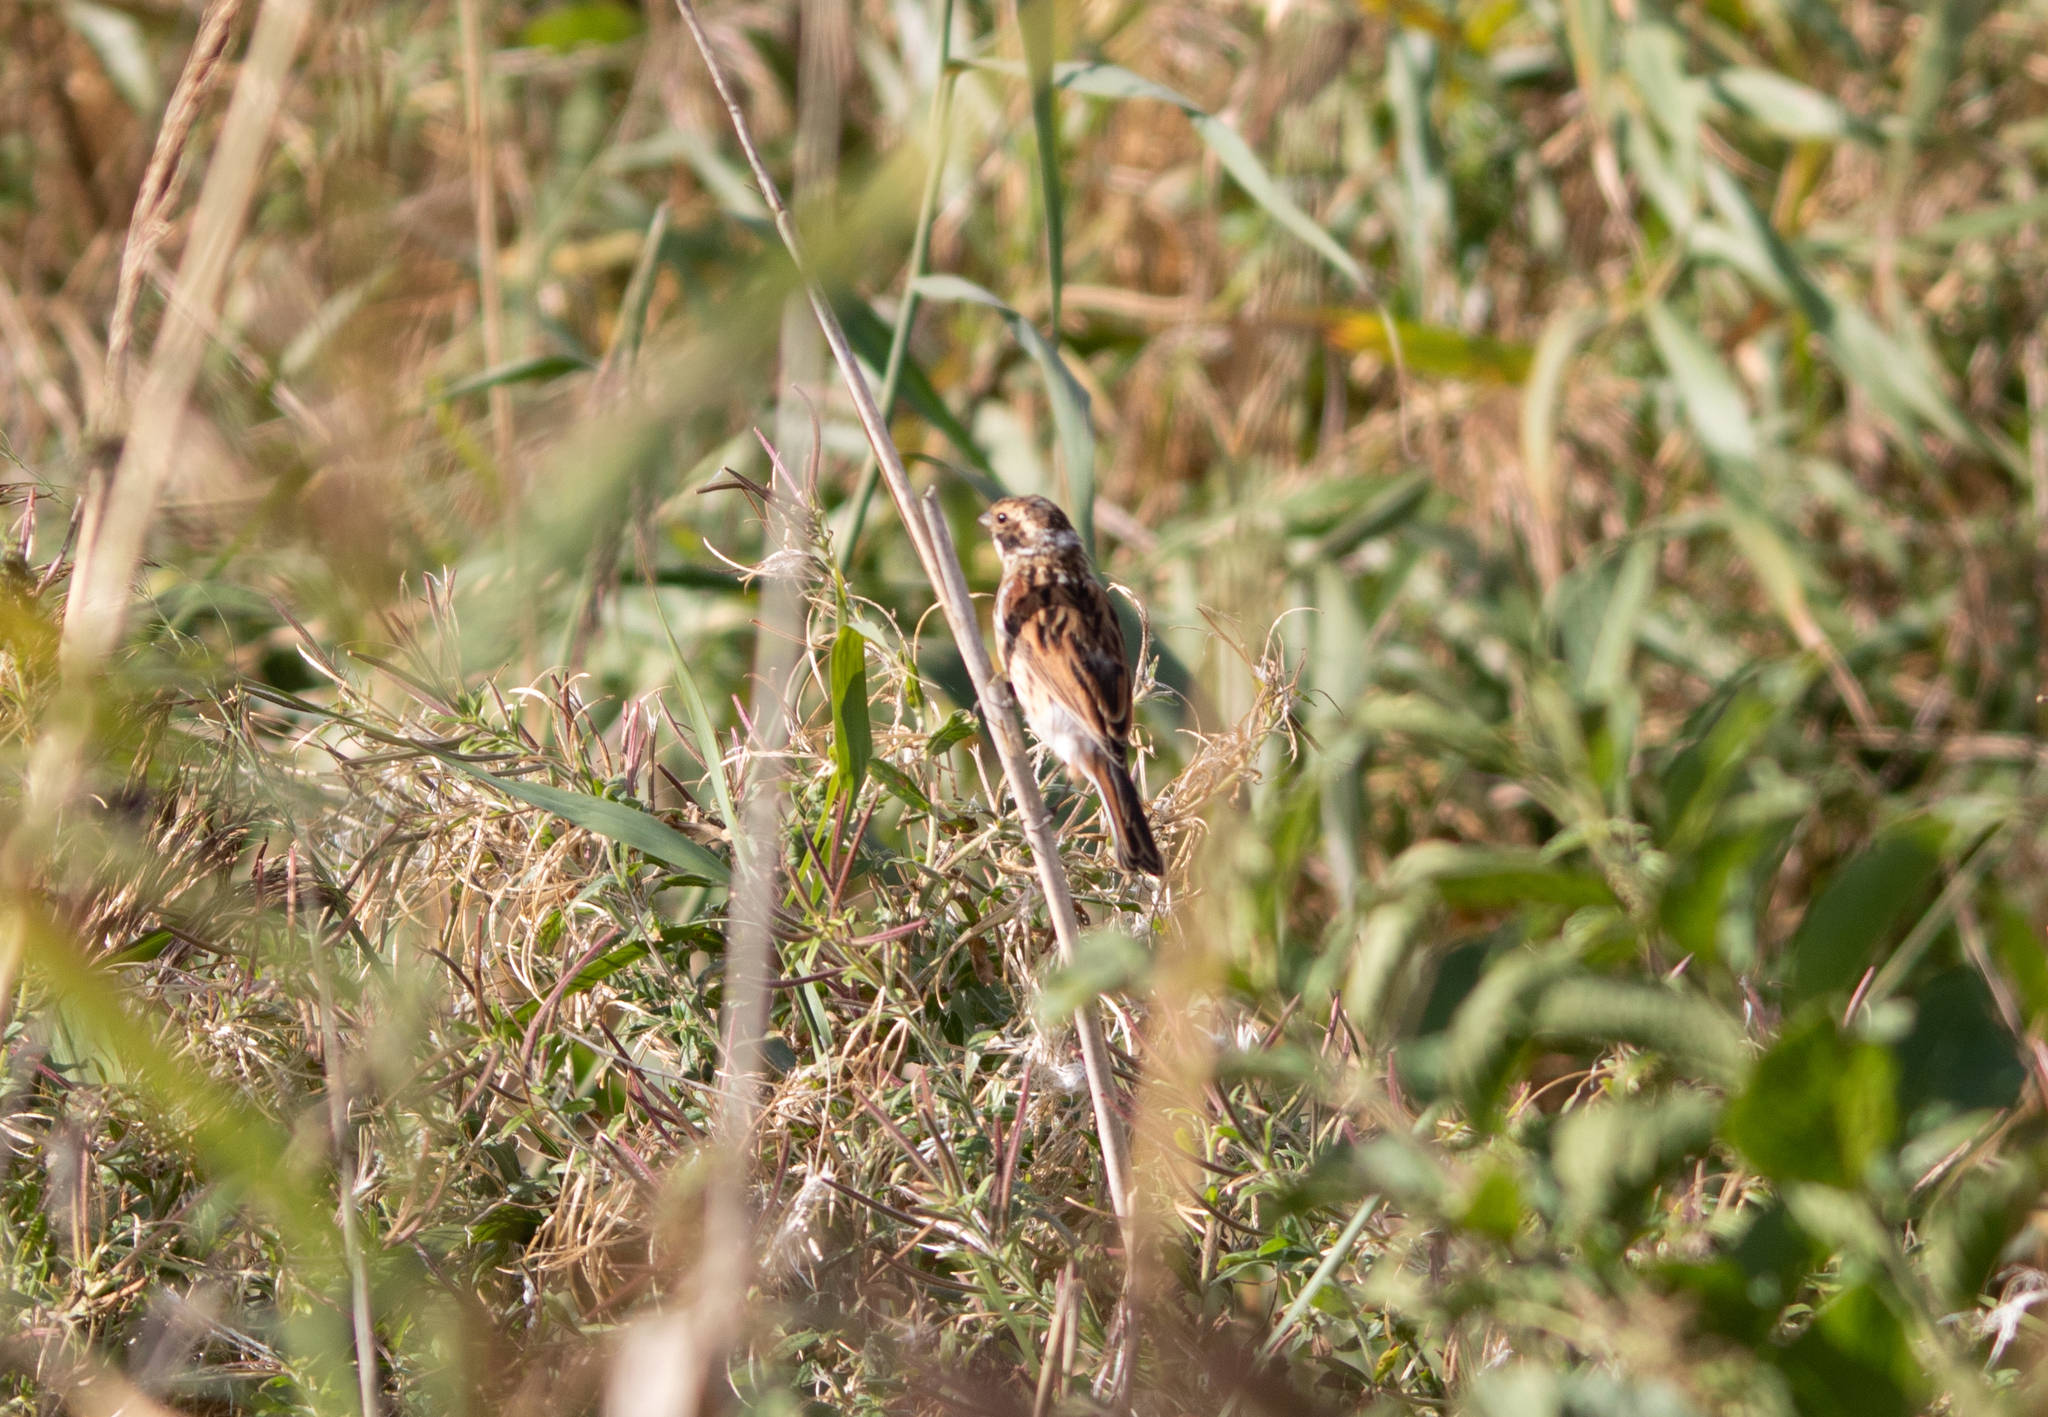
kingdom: Animalia
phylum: Chordata
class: Aves
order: Passeriformes
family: Emberizidae
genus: Emberiza
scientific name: Emberiza schoeniclus
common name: Reed bunting
